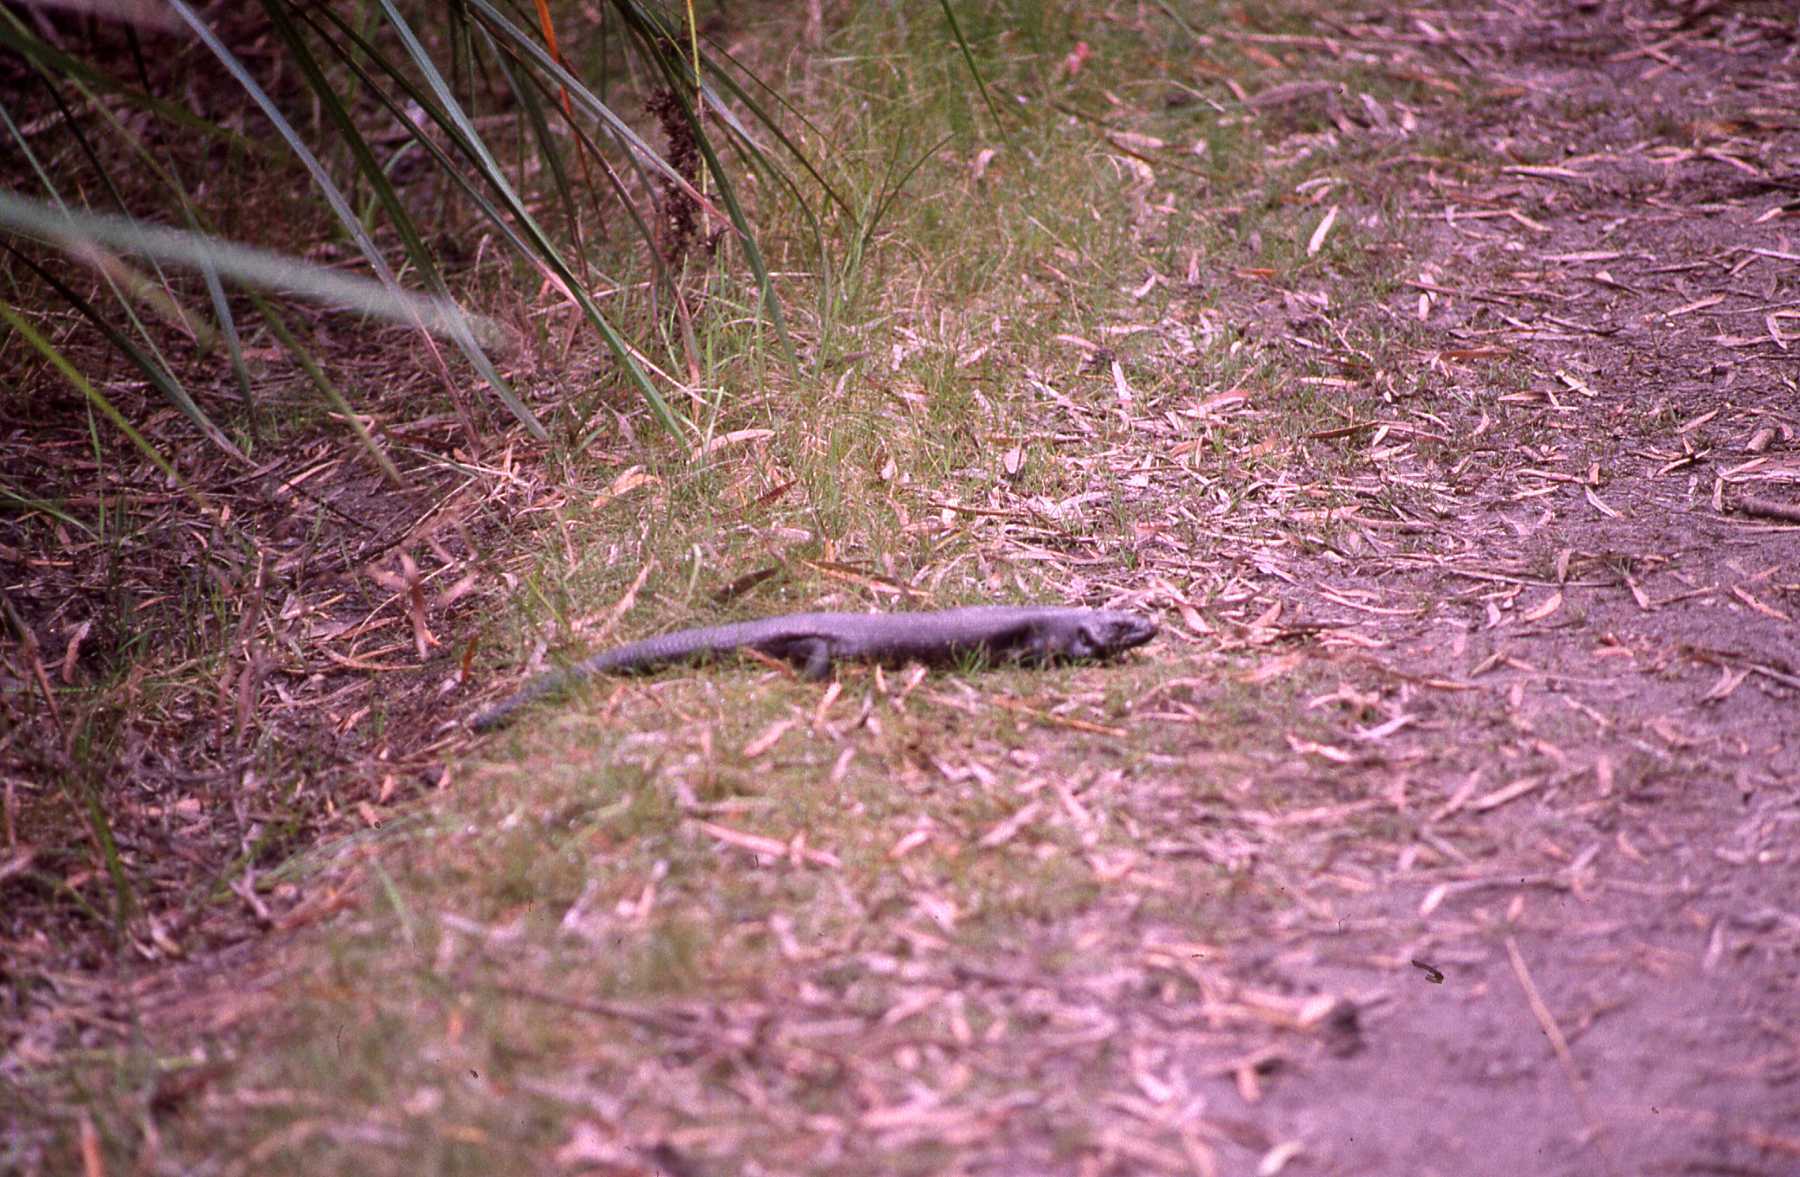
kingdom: Animalia
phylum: Chordata
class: Squamata
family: Scincidae
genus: Egernia
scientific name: Egernia kingii
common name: King's skink
